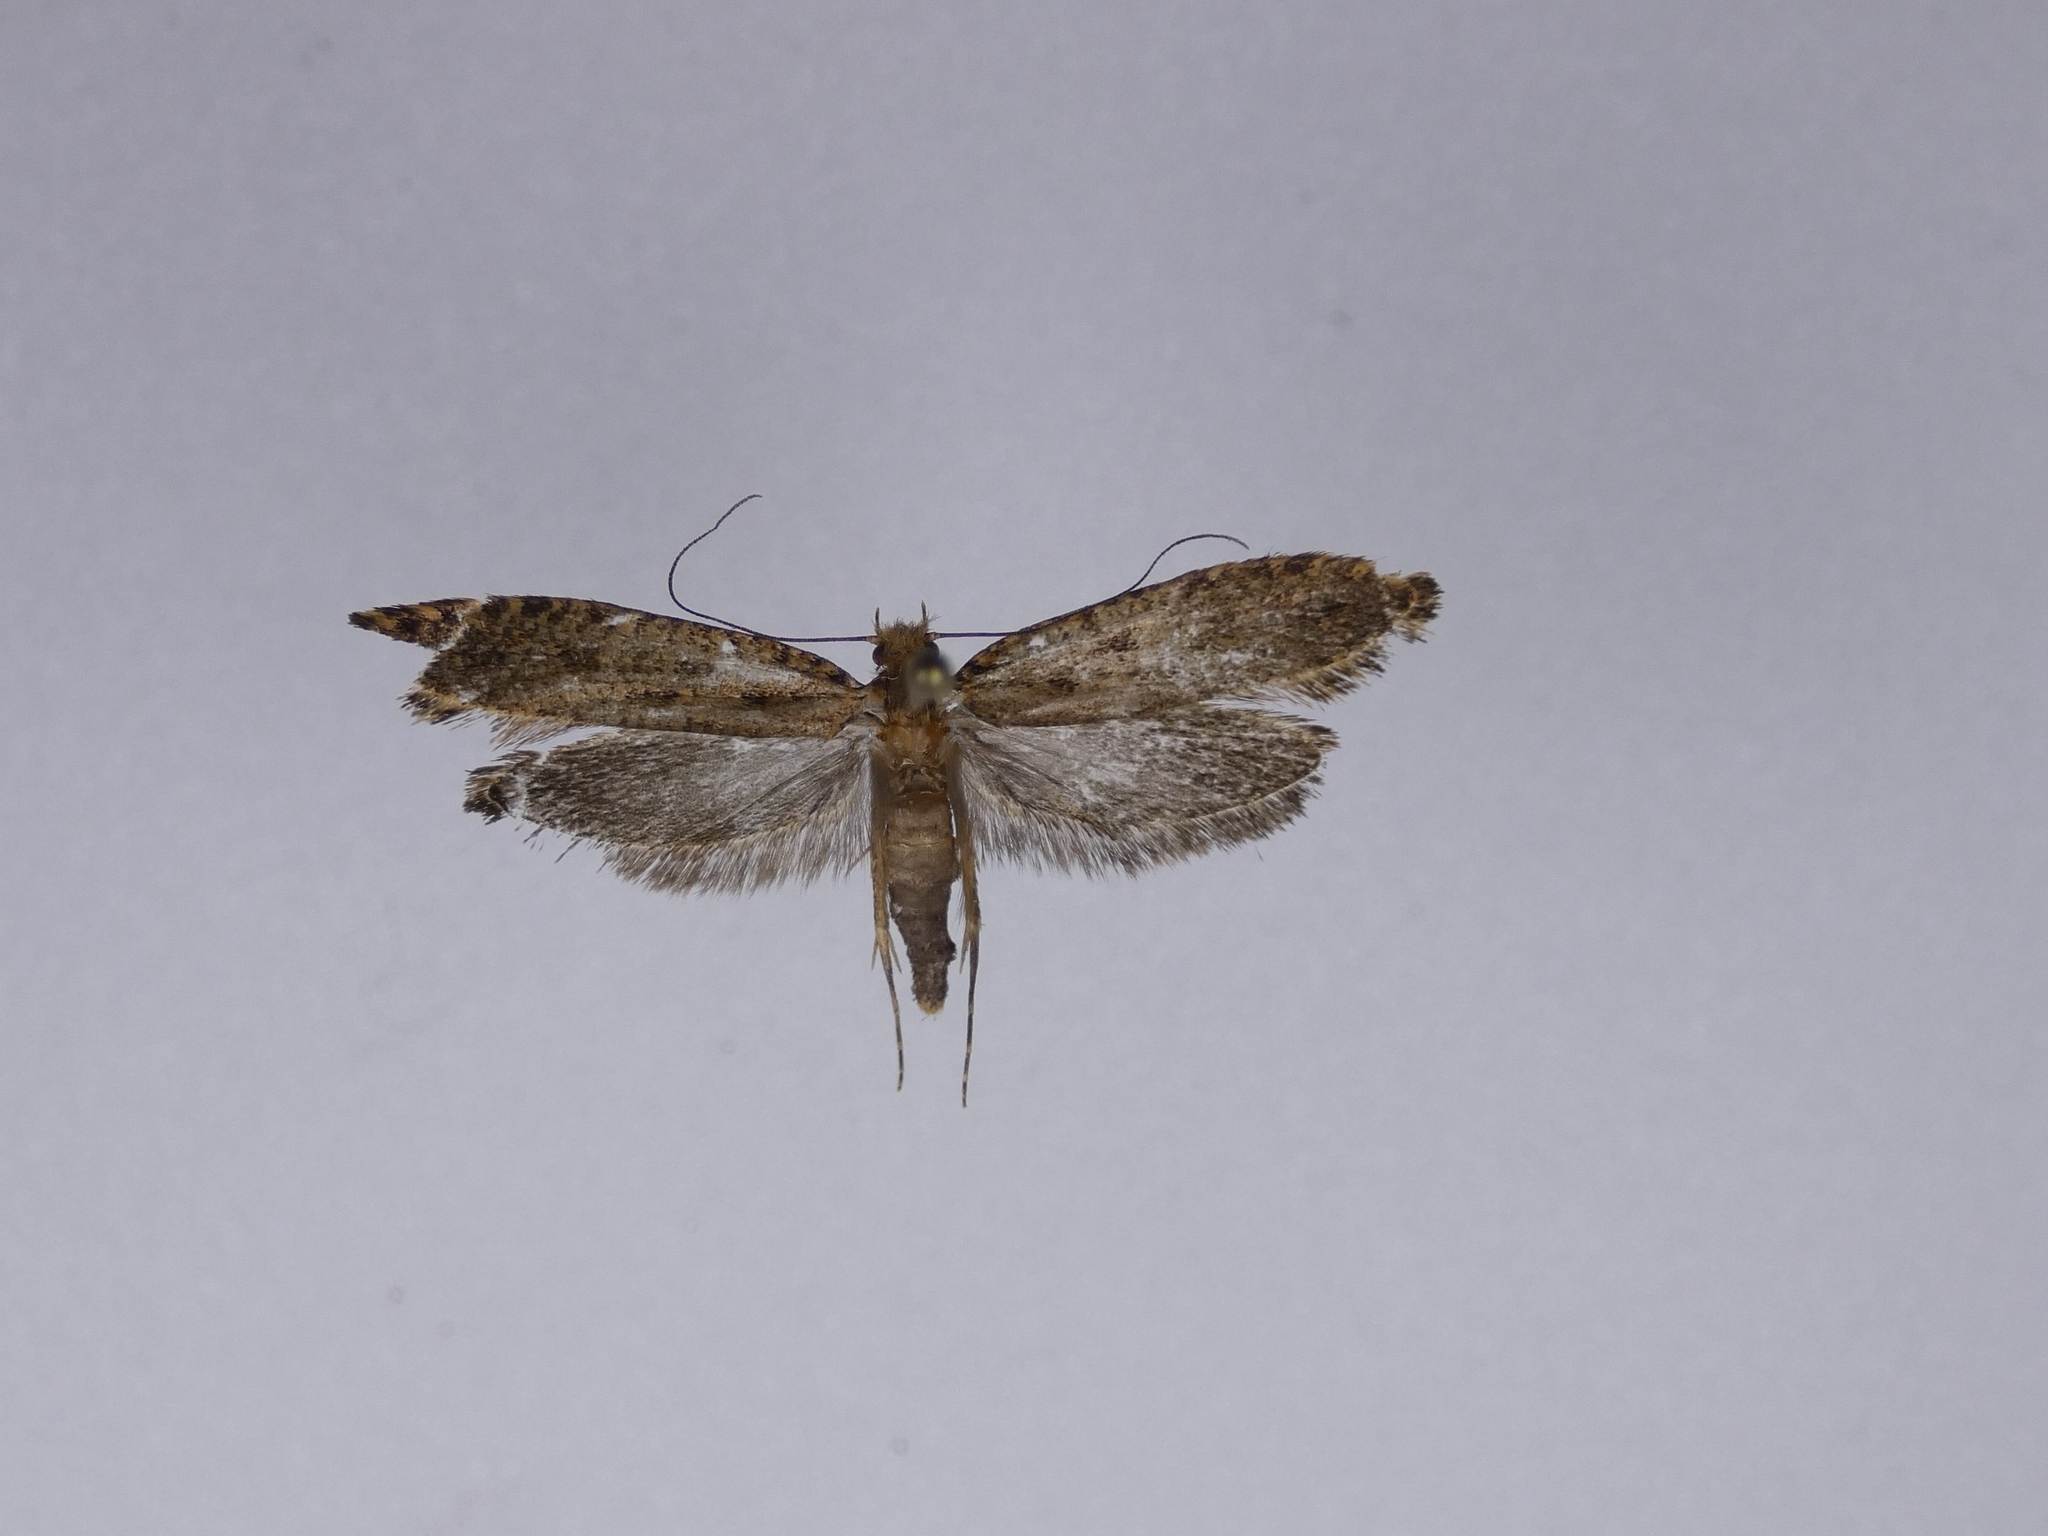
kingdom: Animalia
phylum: Arthropoda
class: Insecta
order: Lepidoptera
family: Tineidae
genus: Archyala
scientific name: Archyala terranea
